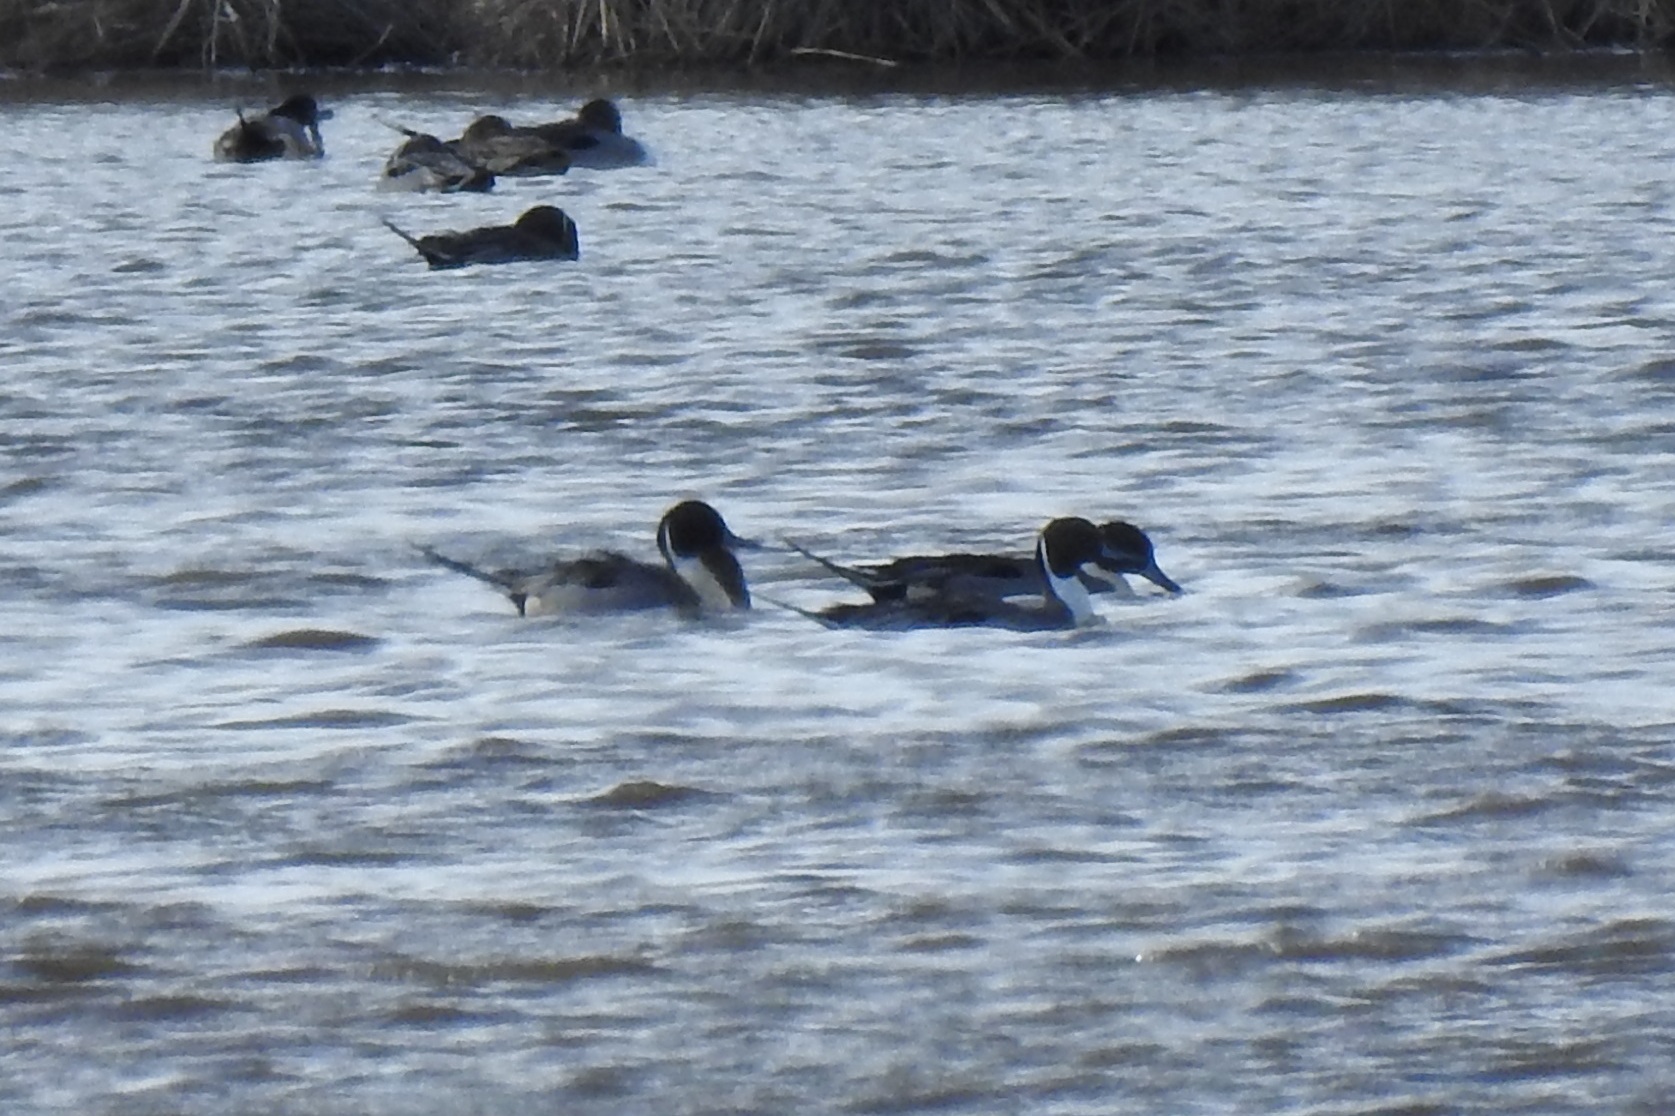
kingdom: Animalia
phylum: Chordata
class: Aves
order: Anseriformes
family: Anatidae
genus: Anas
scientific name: Anas acuta
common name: Northern pintail
